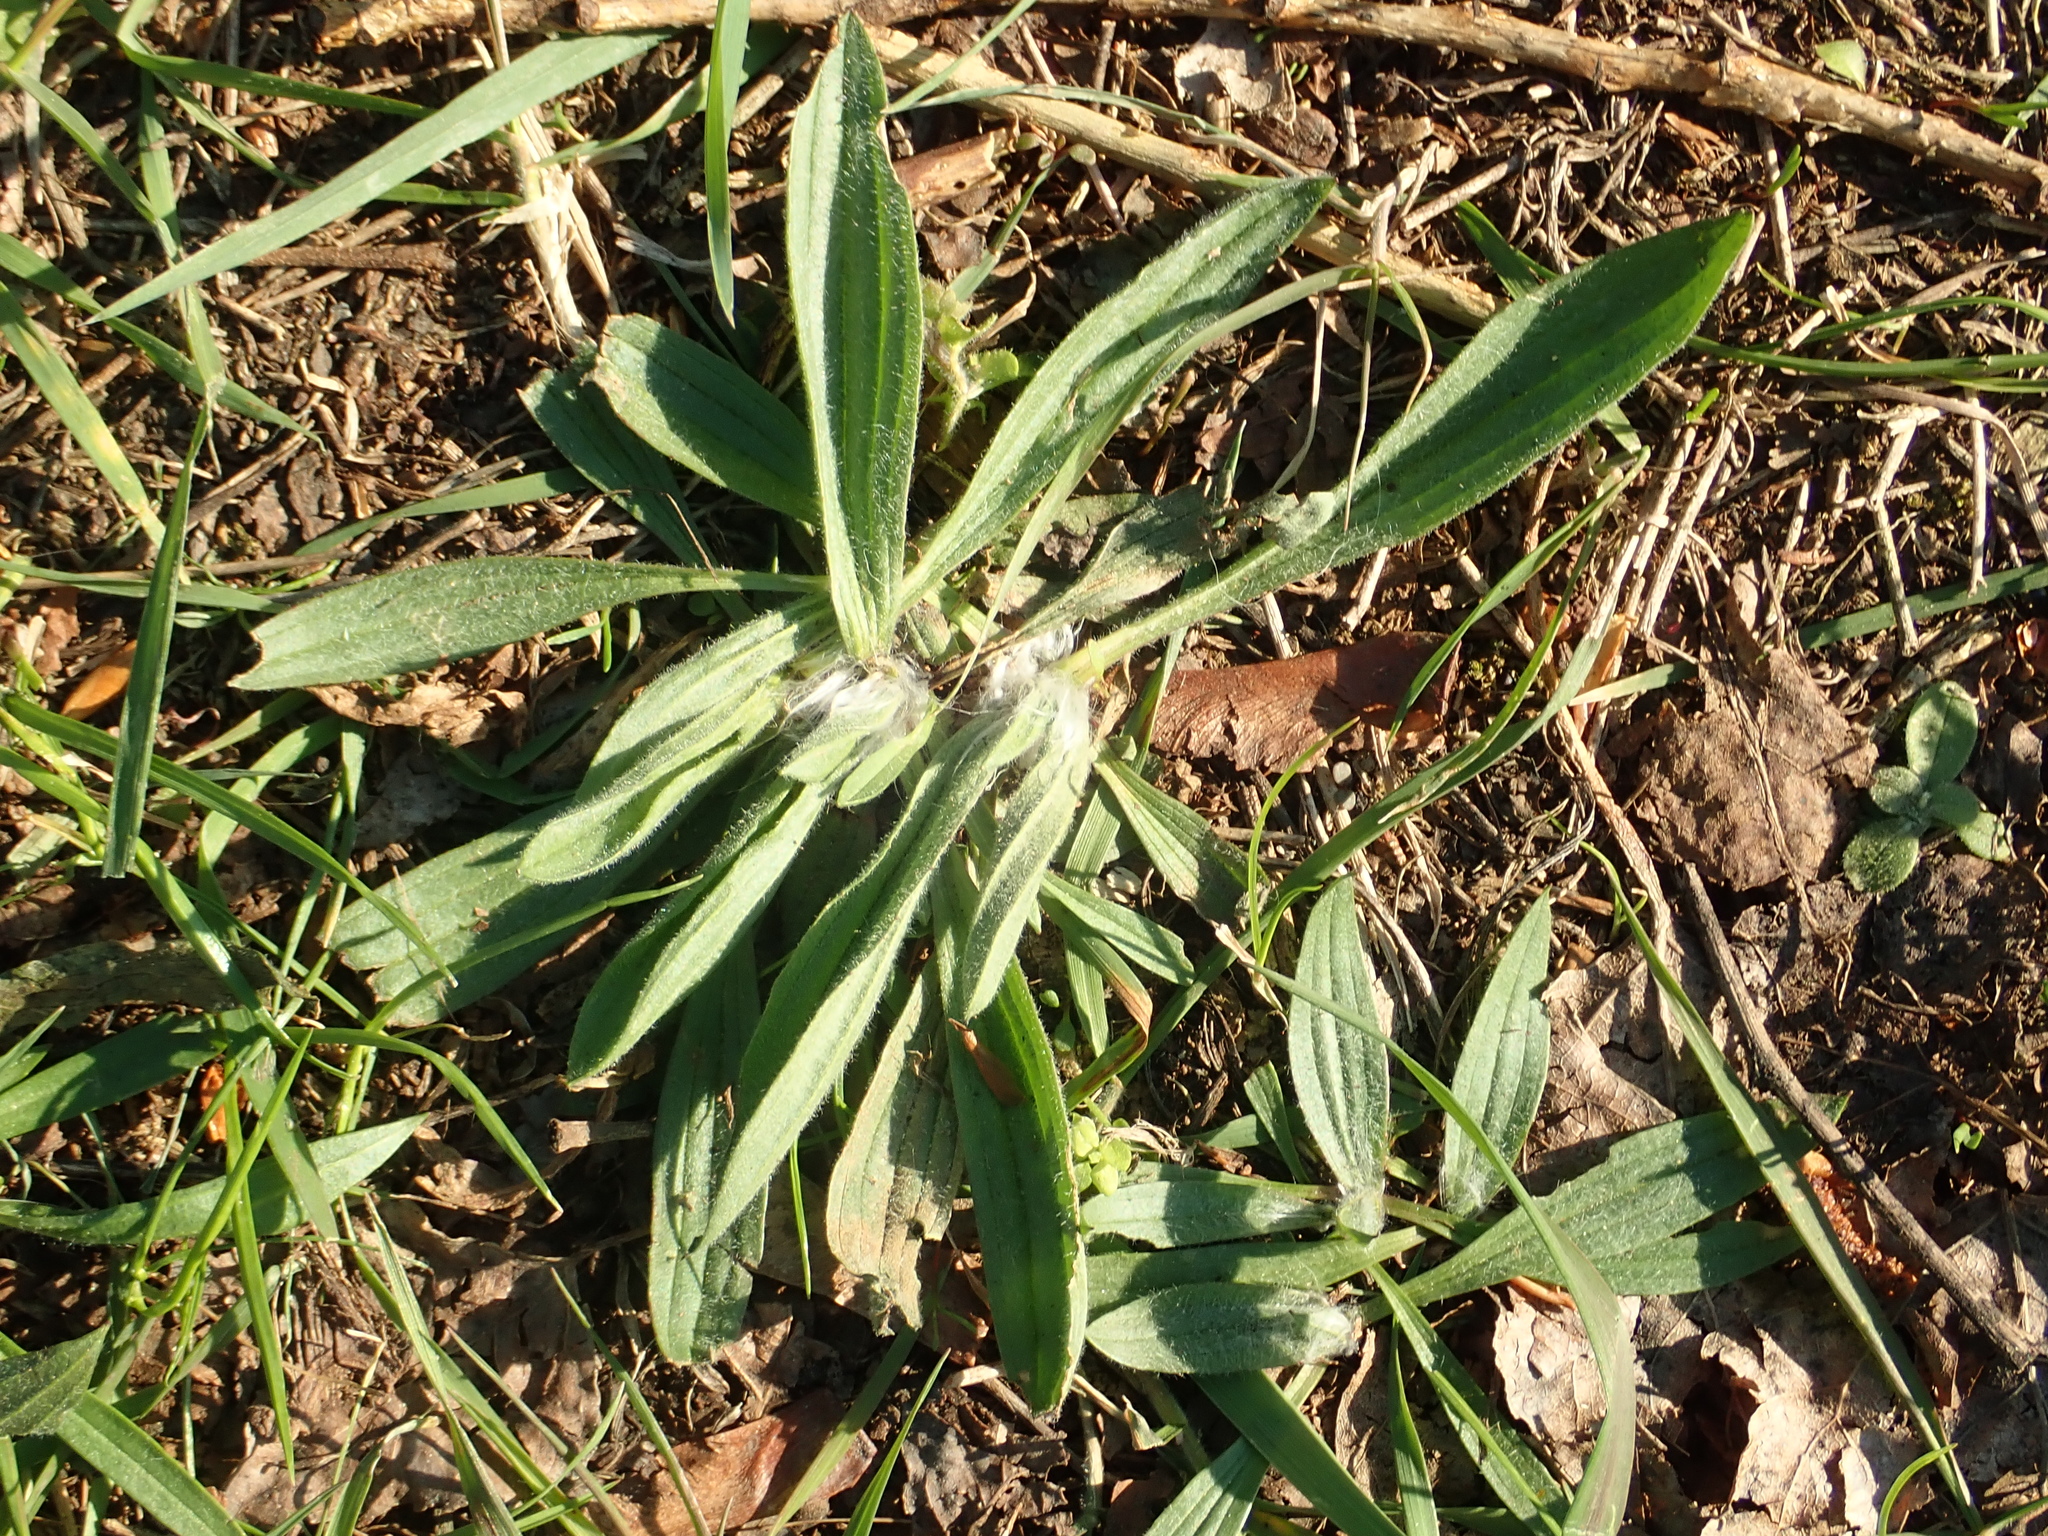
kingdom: Plantae
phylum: Tracheophyta
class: Magnoliopsida
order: Lamiales
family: Plantaginaceae
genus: Plantago
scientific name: Plantago lanceolata
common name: Ribwort plantain
